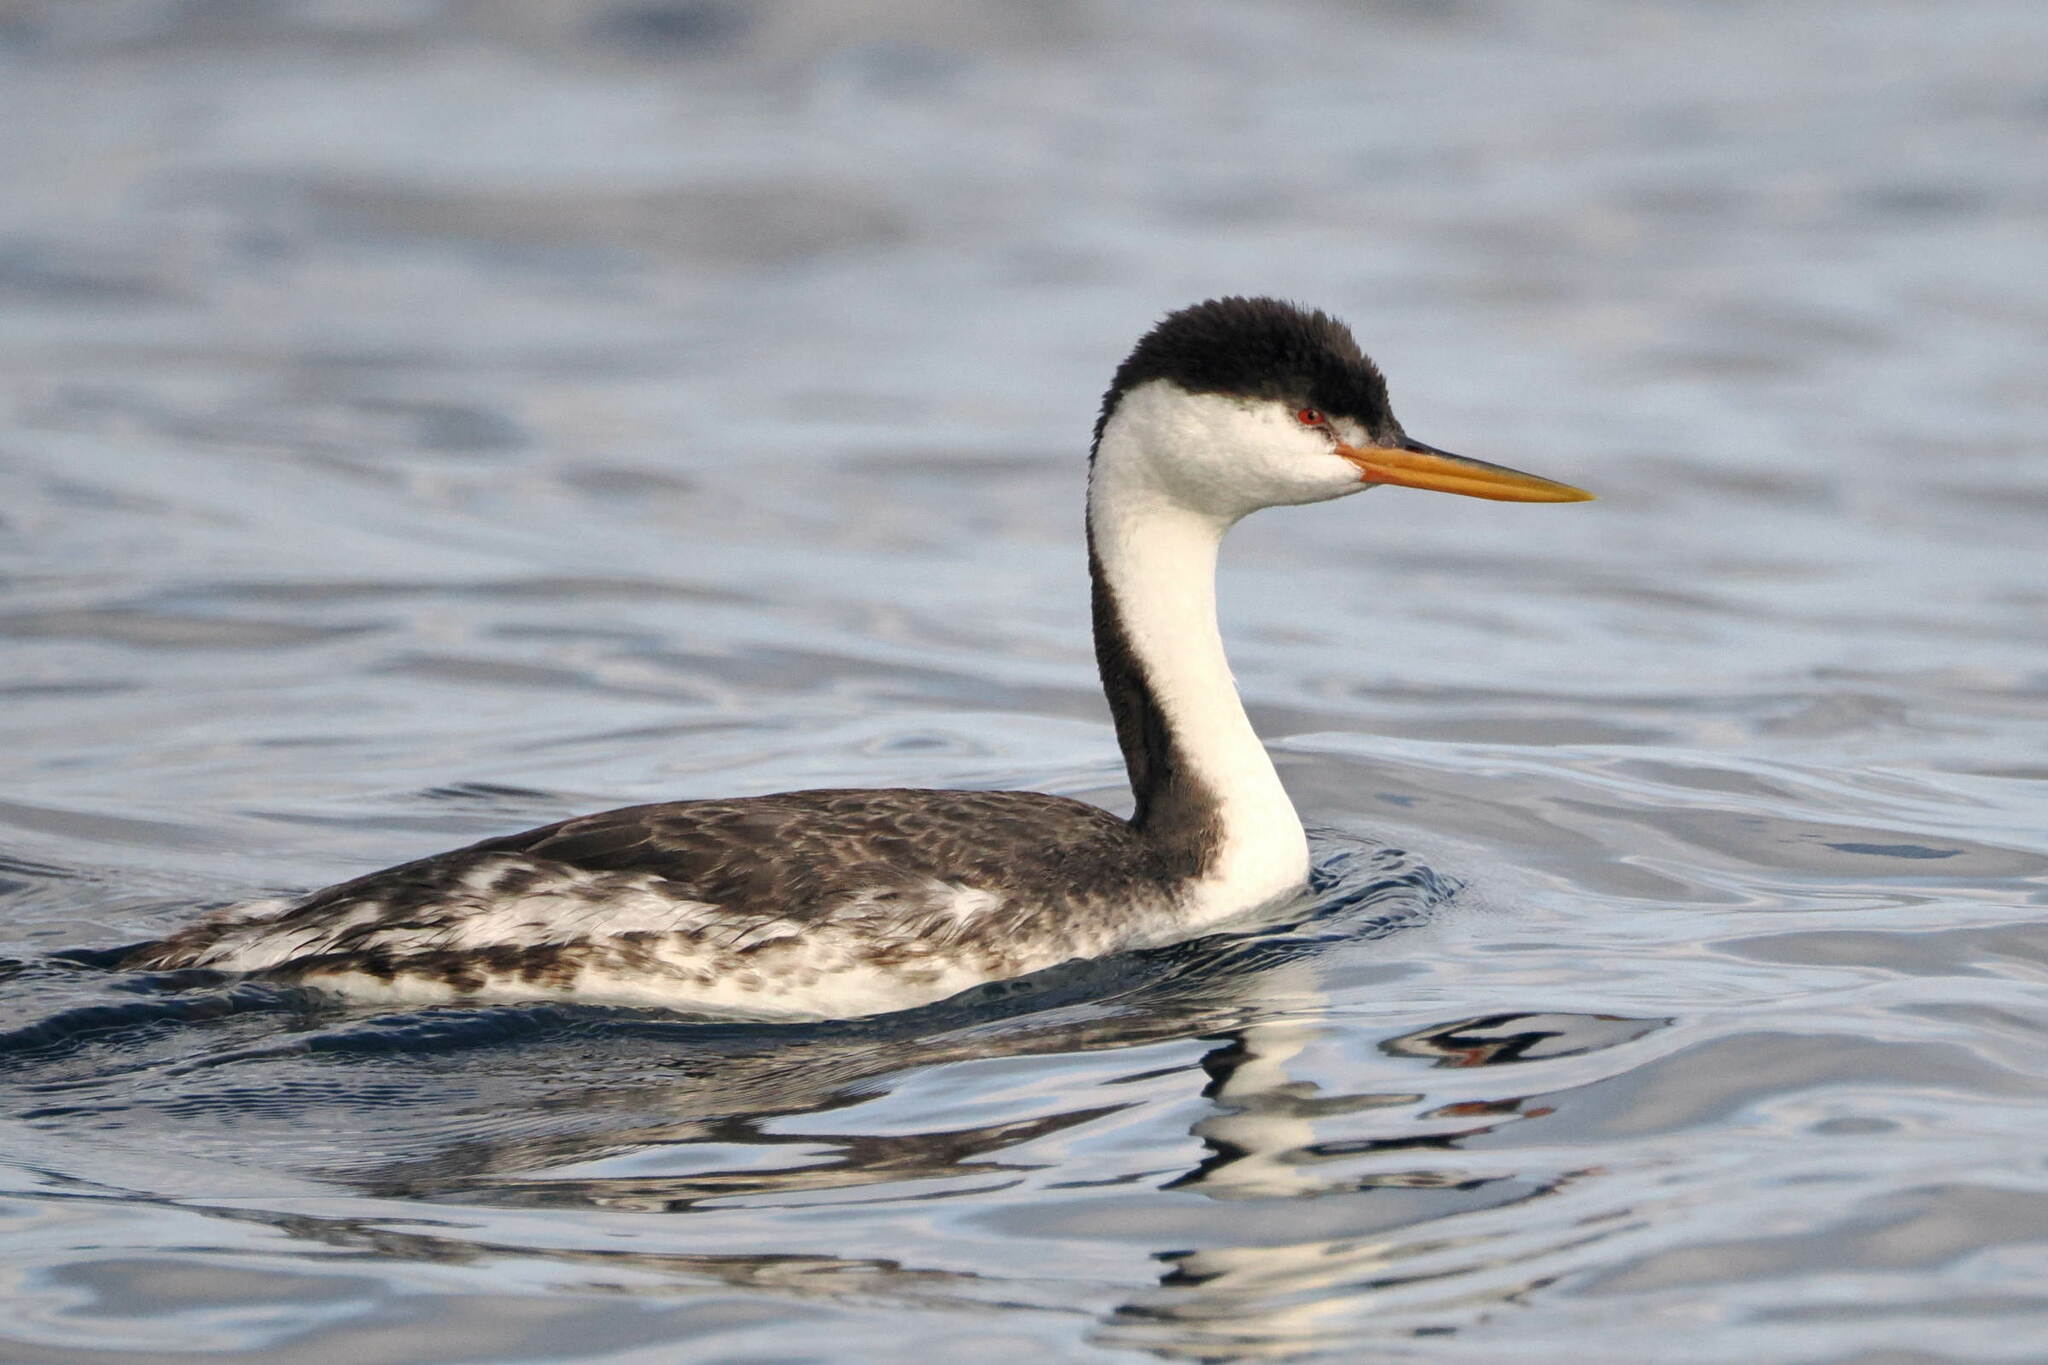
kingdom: Animalia
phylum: Chordata
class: Aves
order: Podicipediformes
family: Podicipedidae
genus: Aechmophorus
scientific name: Aechmophorus occidentalis
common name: Western grebe
